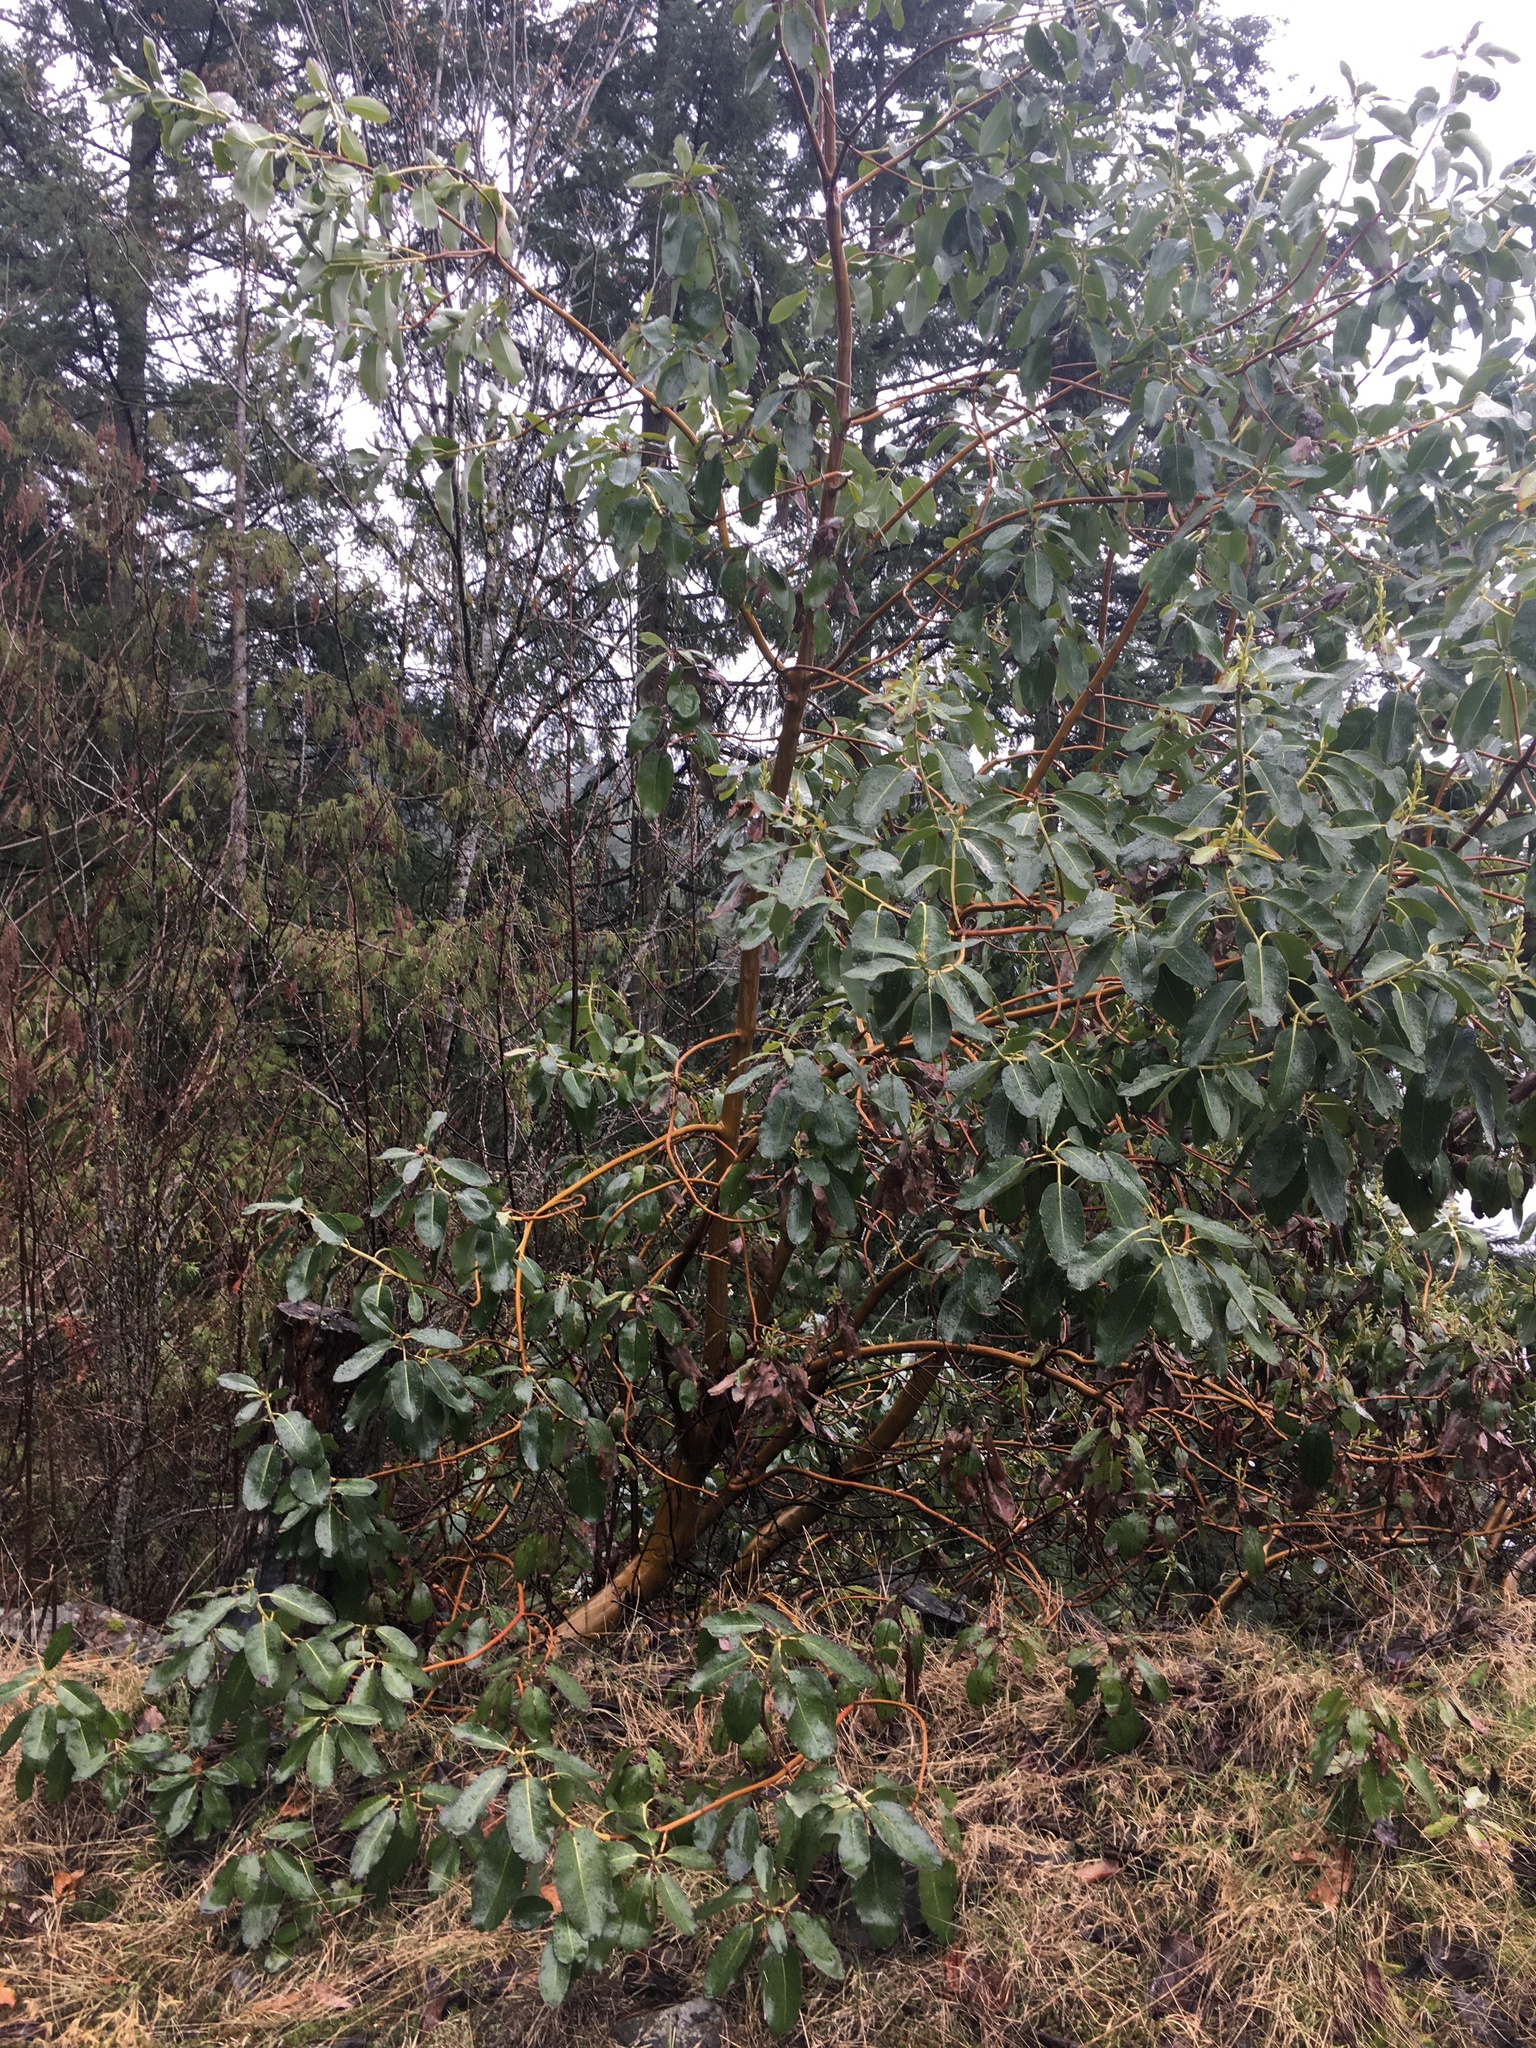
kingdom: Plantae
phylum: Tracheophyta
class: Magnoliopsida
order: Ericales
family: Ericaceae
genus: Arbutus
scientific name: Arbutus menziesii
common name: Pacific madrone
